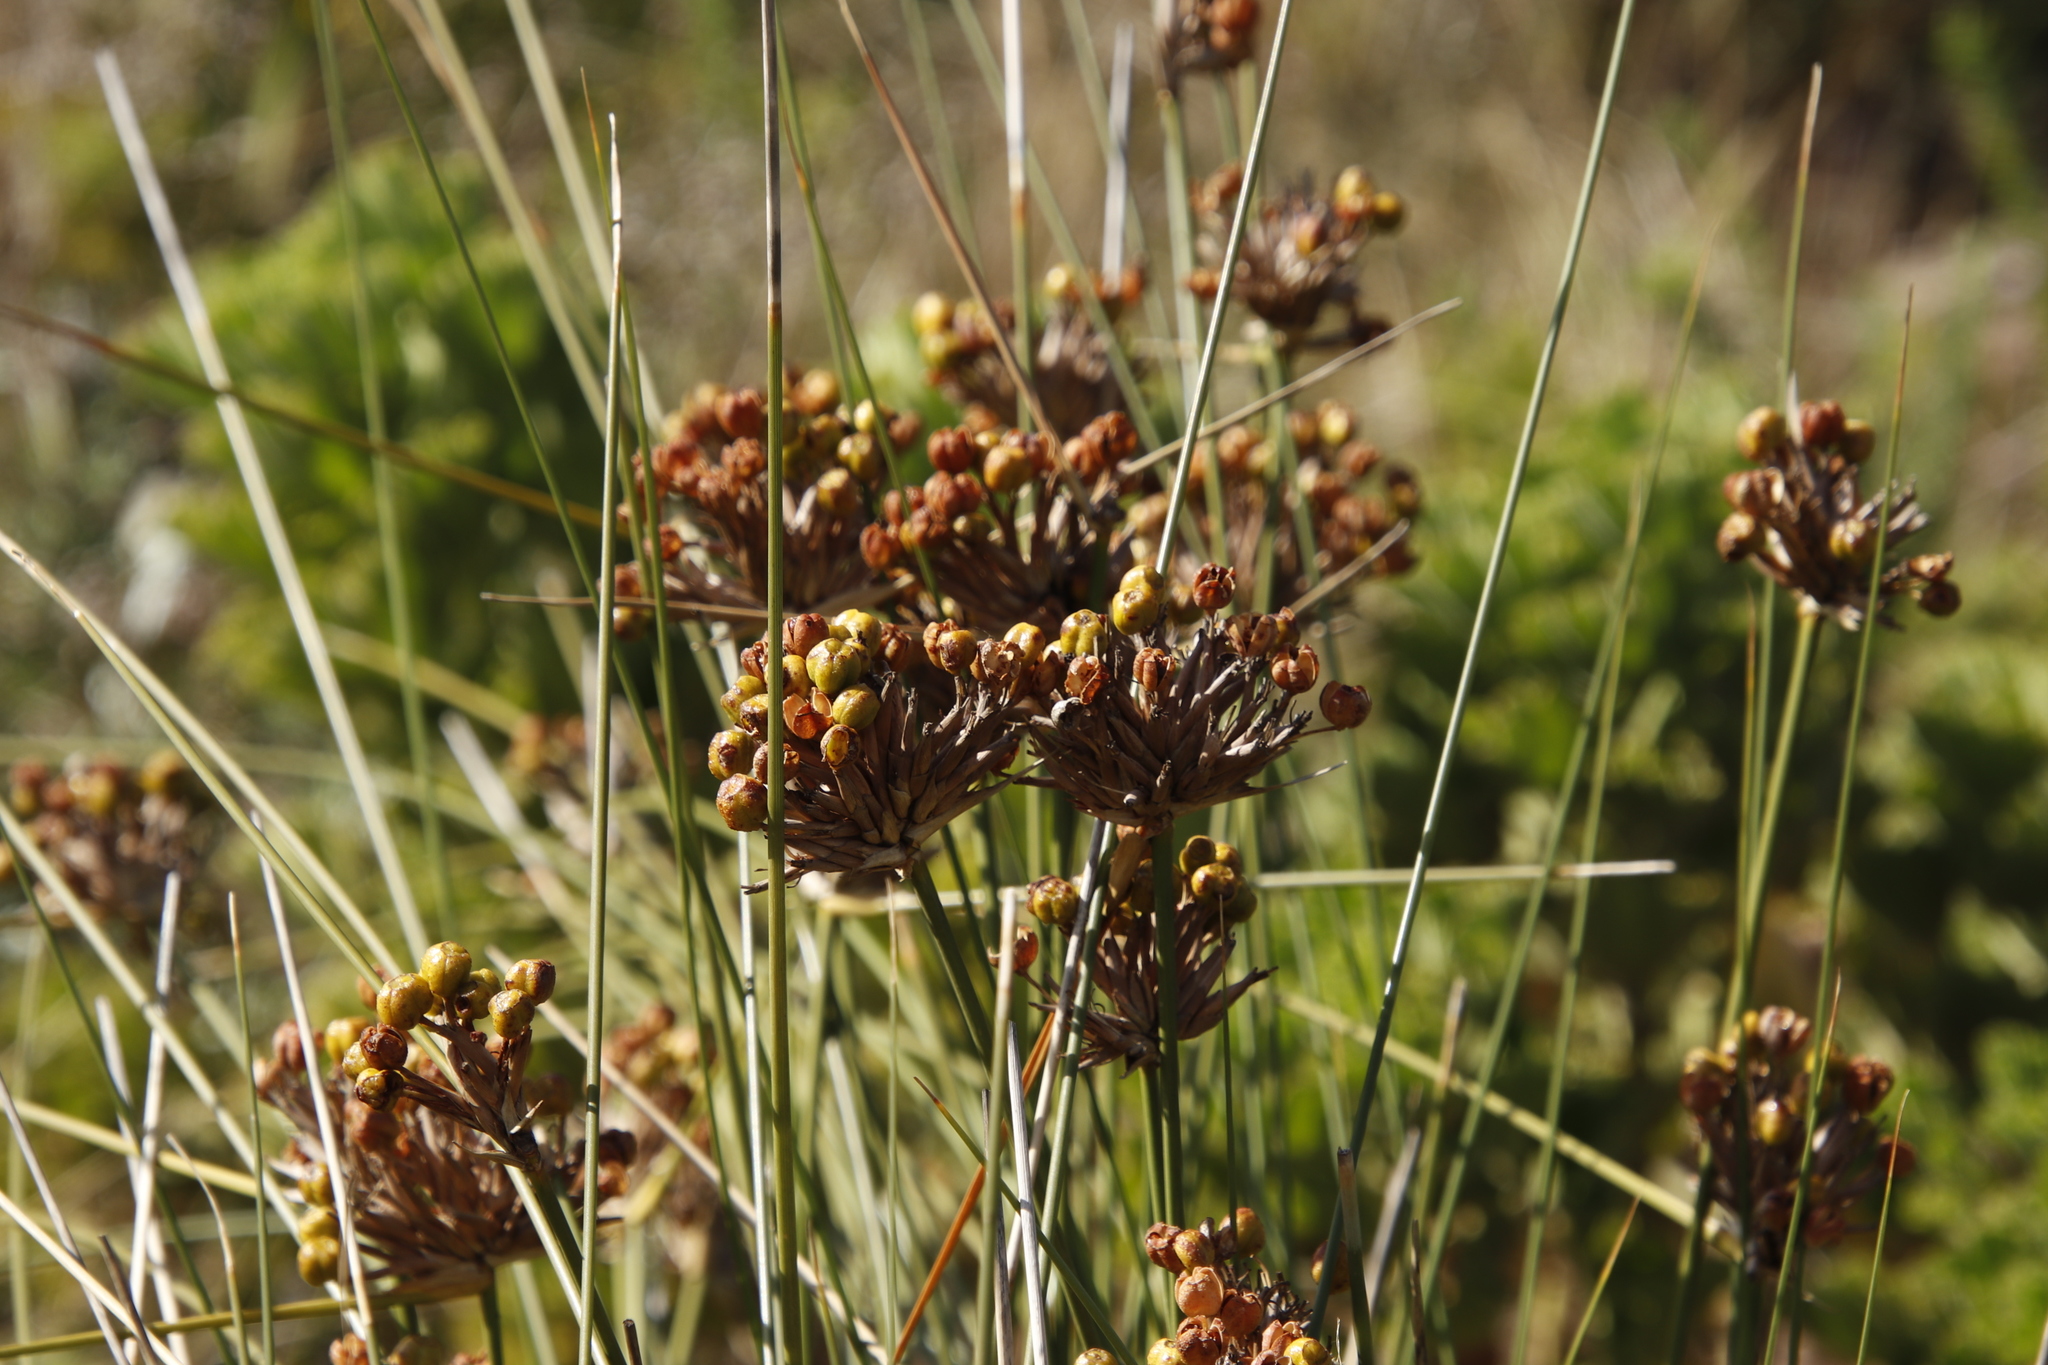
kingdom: Plantae
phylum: Tracheophyta
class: Liliopsida
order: Asparagales
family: Iridaceae
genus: Bobartia
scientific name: Bobartia indica
